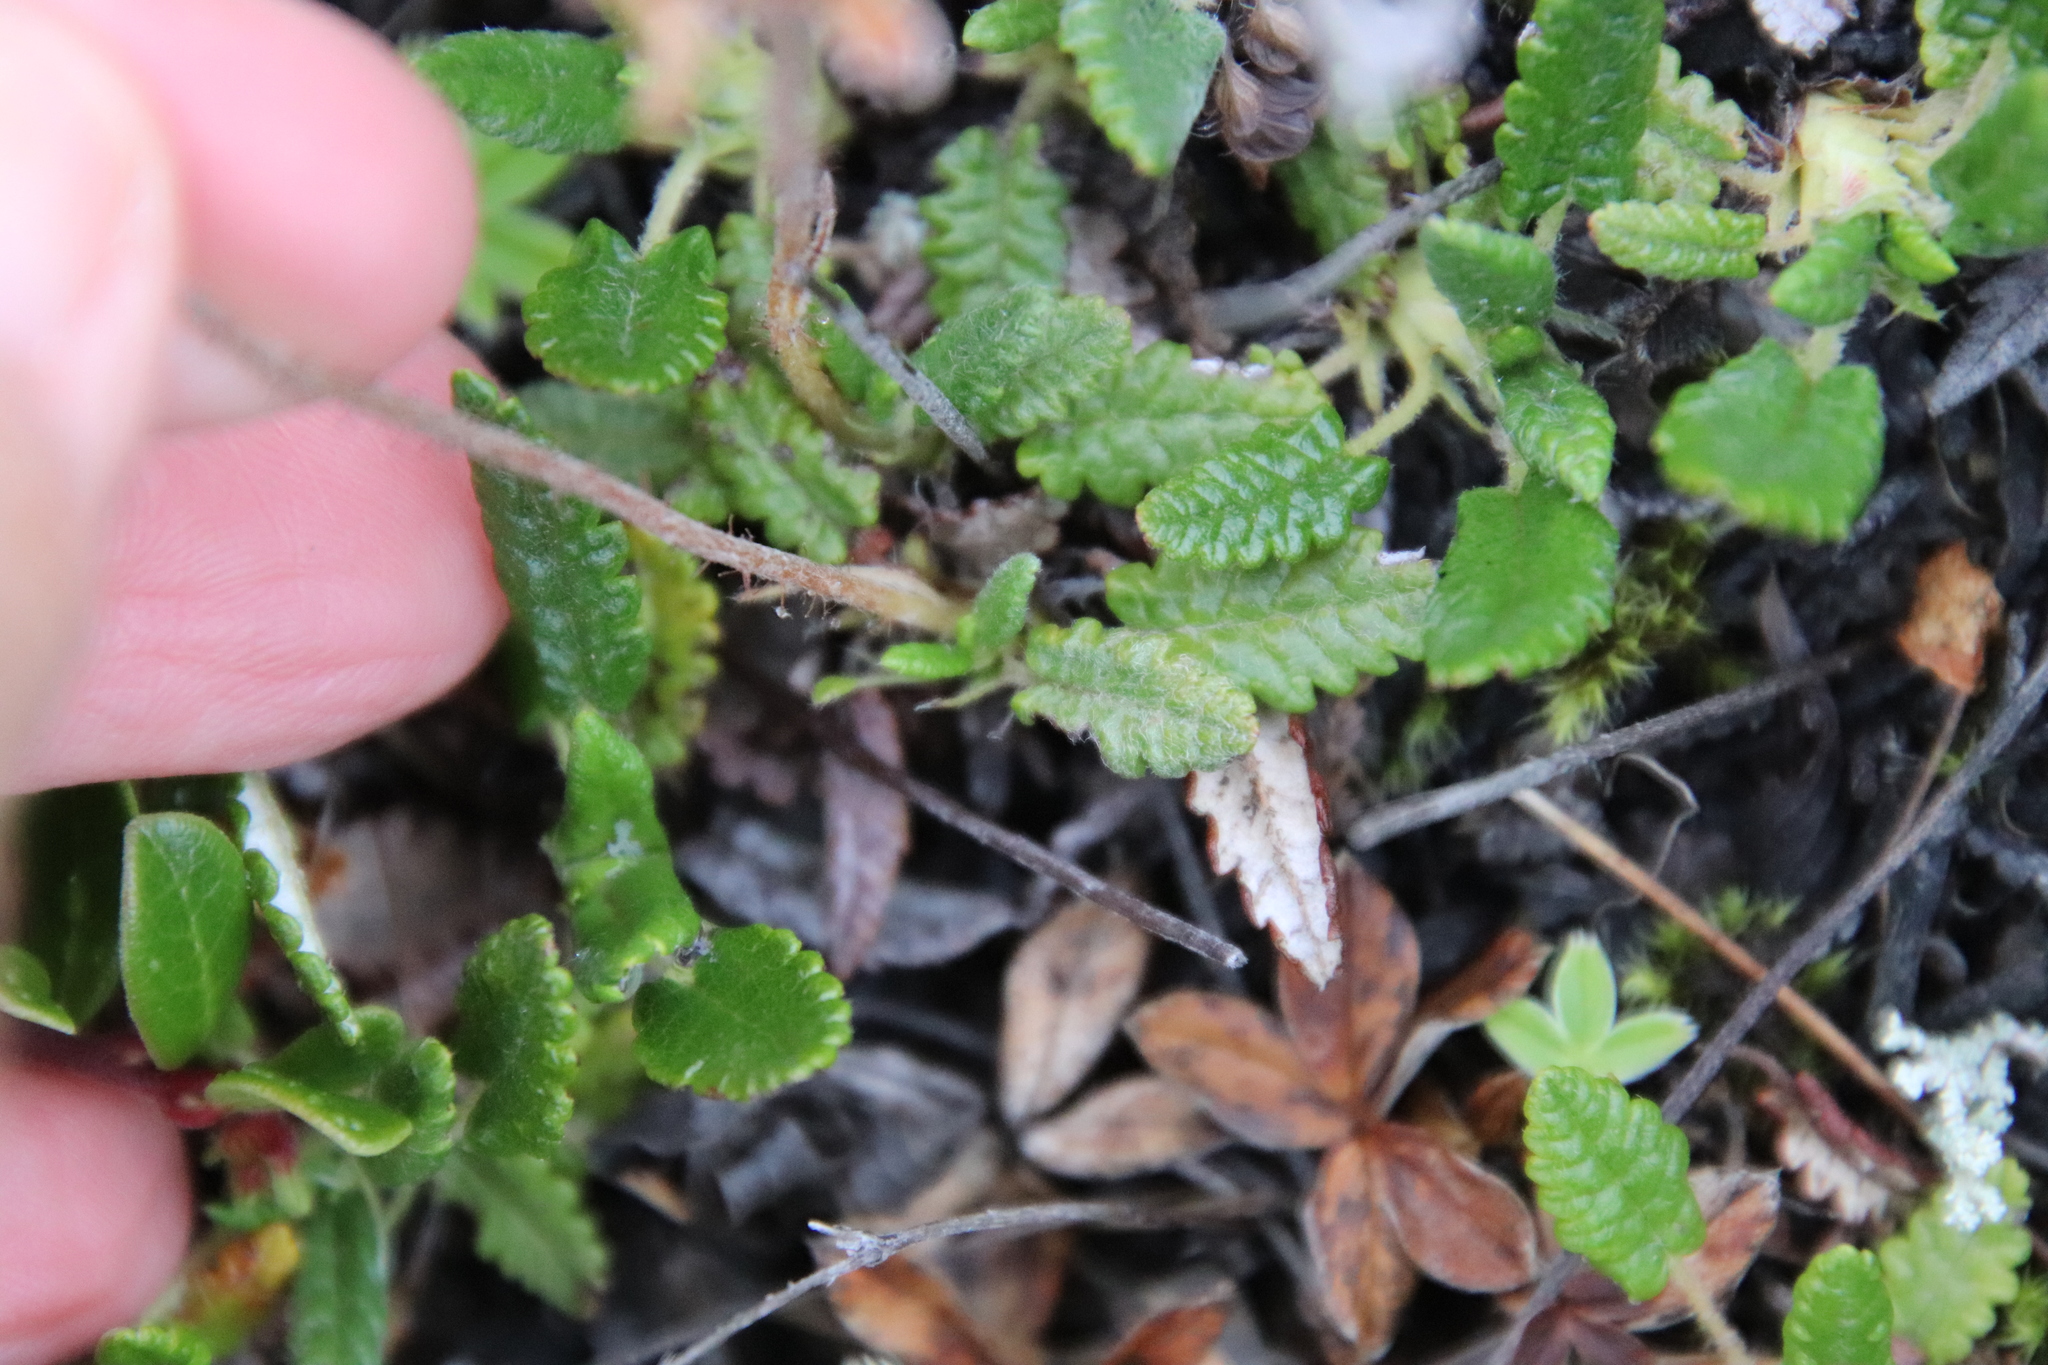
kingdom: Plantae
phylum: Tracheophyta
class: Magnoliopsida
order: Rosales
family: Rosaceae
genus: Dryas
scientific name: Dryas octopetala
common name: Eight-petal mountain-avens
